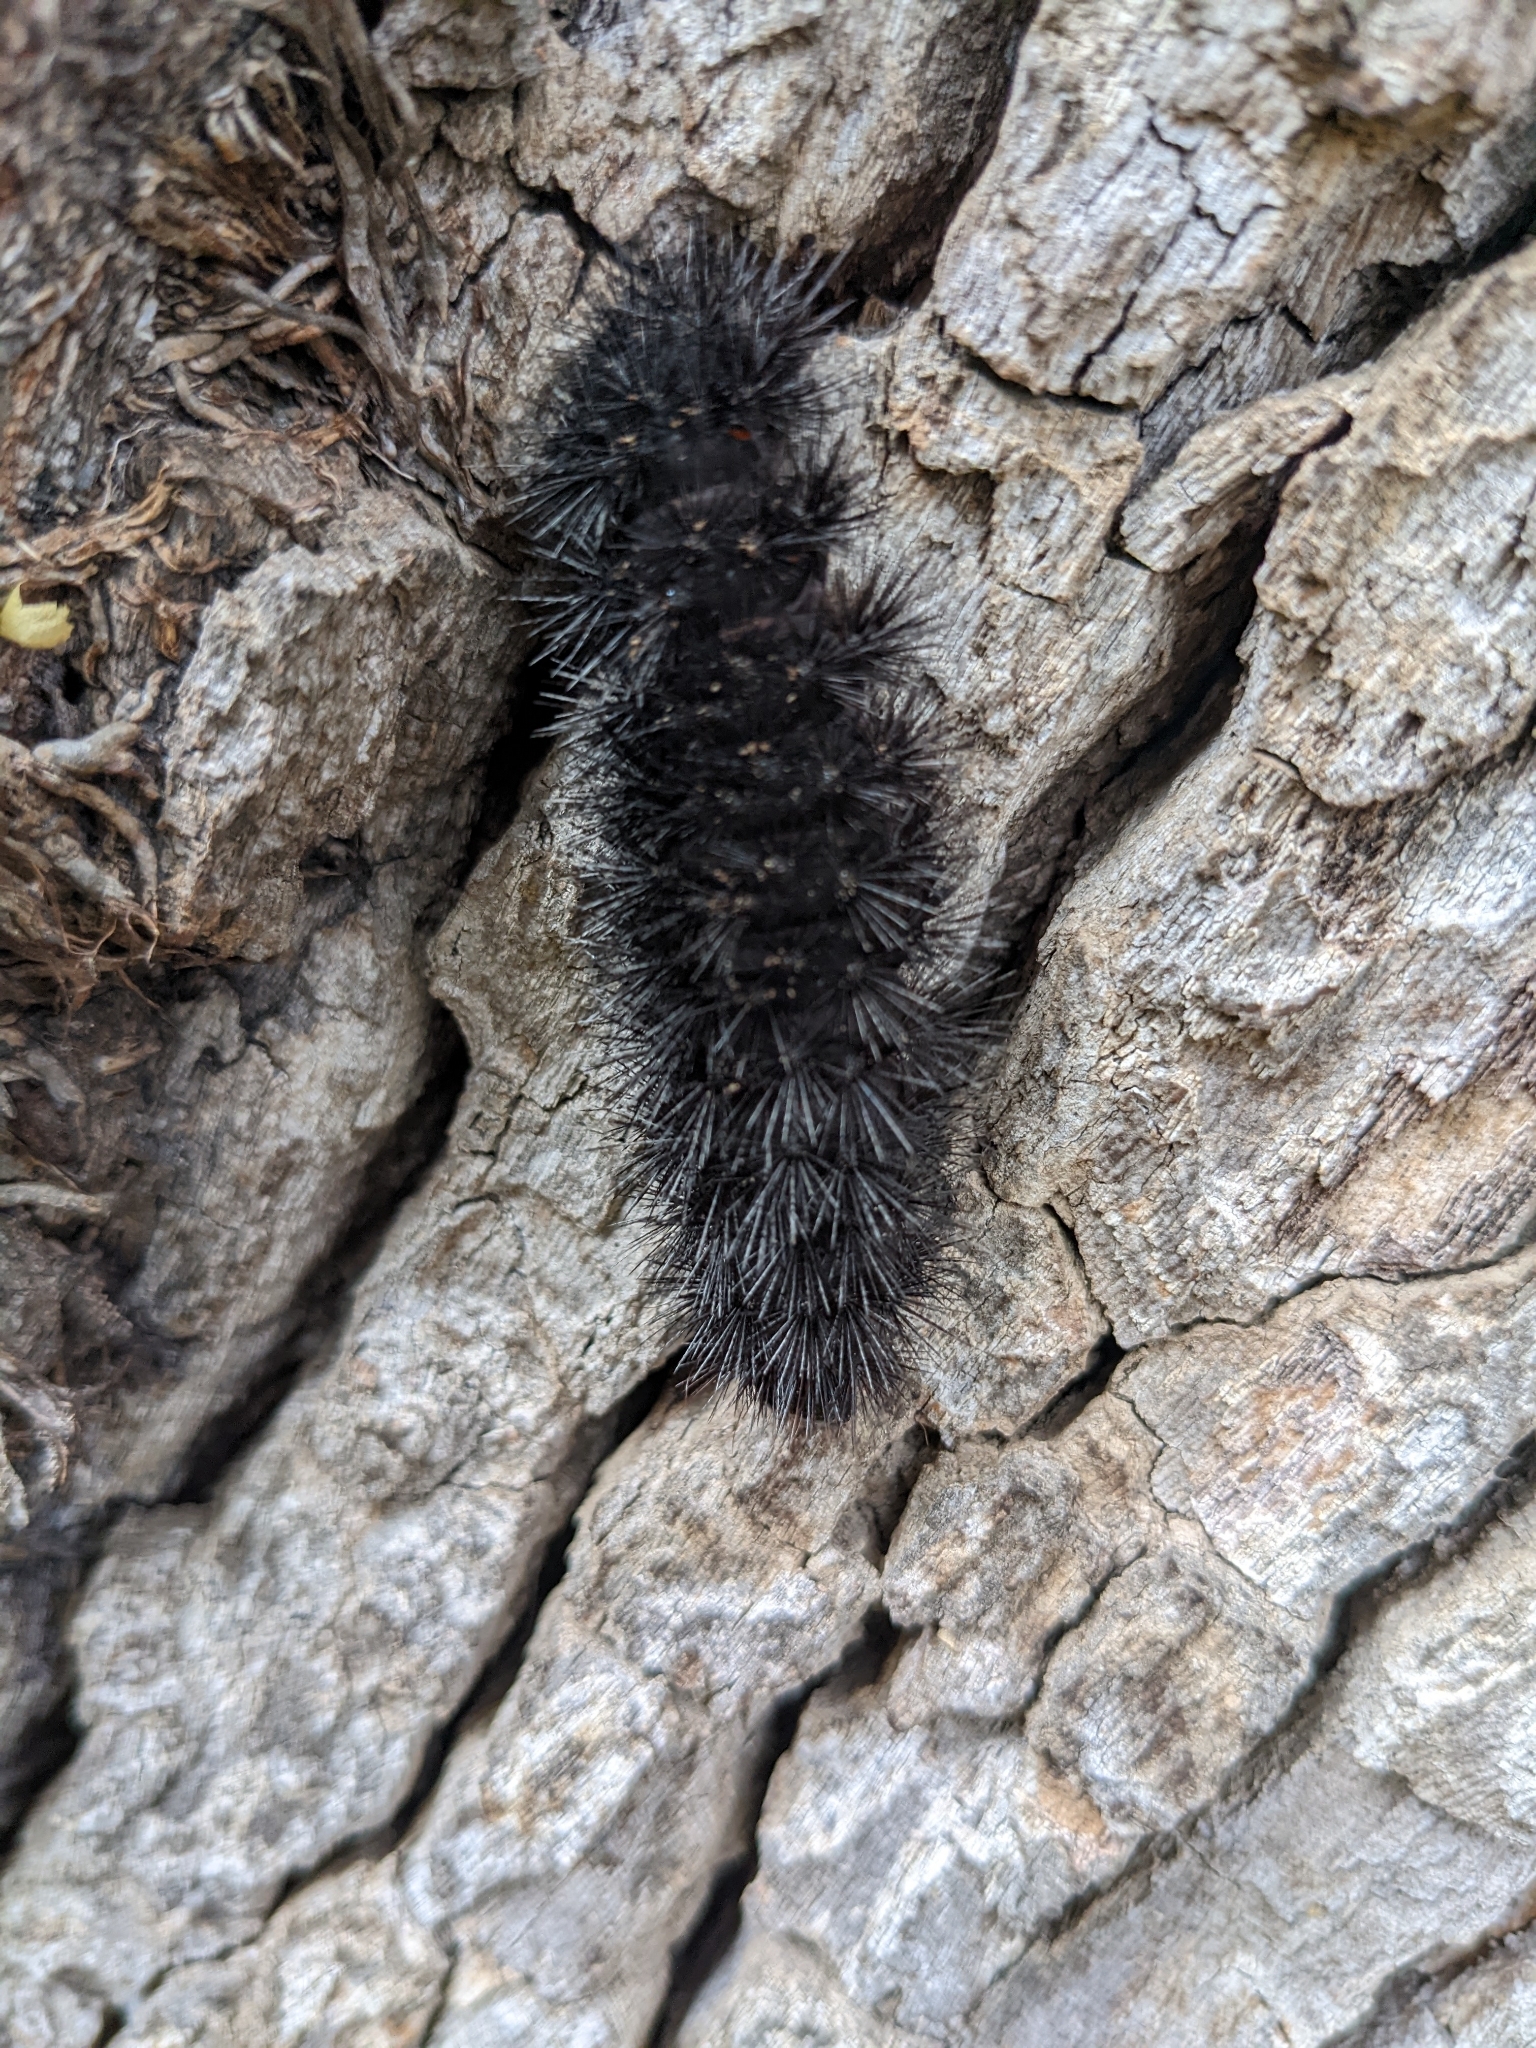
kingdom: Animalia
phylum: Arthropoda
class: Insecta
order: Lepidoptera
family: Erebidae
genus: Hypercompe
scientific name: Hypercompe scribonia
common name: Giant leopard moth
